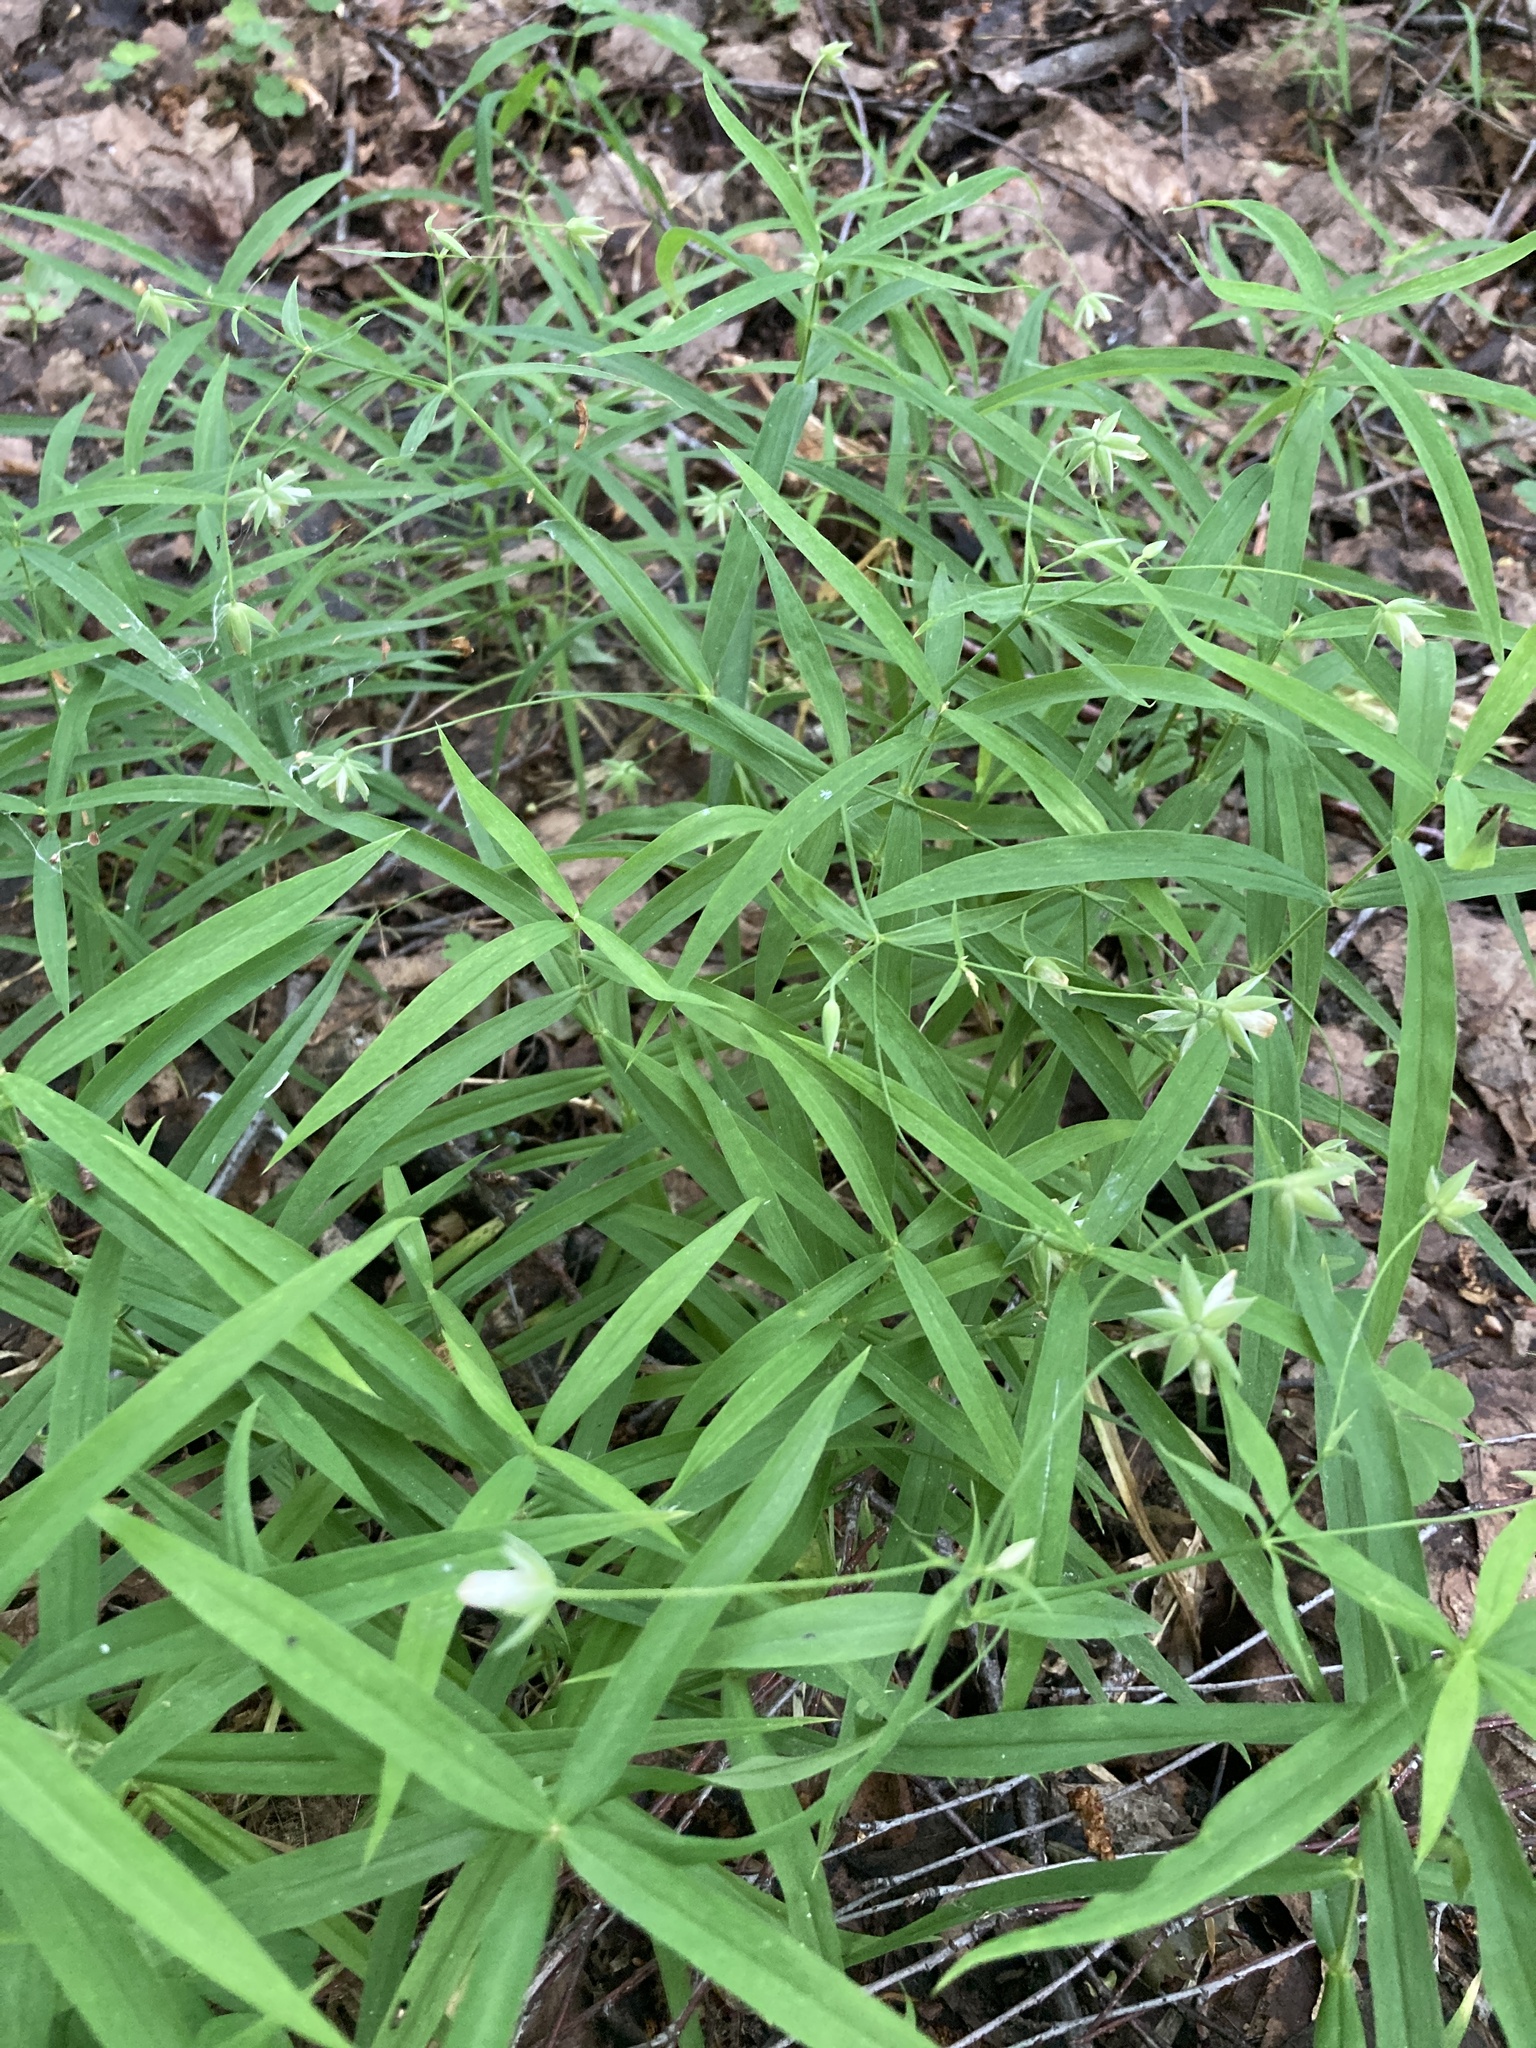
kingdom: Plantae
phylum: Tracheophyta
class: Magnoliopsida
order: Caryophyllales
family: Caryophyllaceae
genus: Rabelera
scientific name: Rabelera holostea
